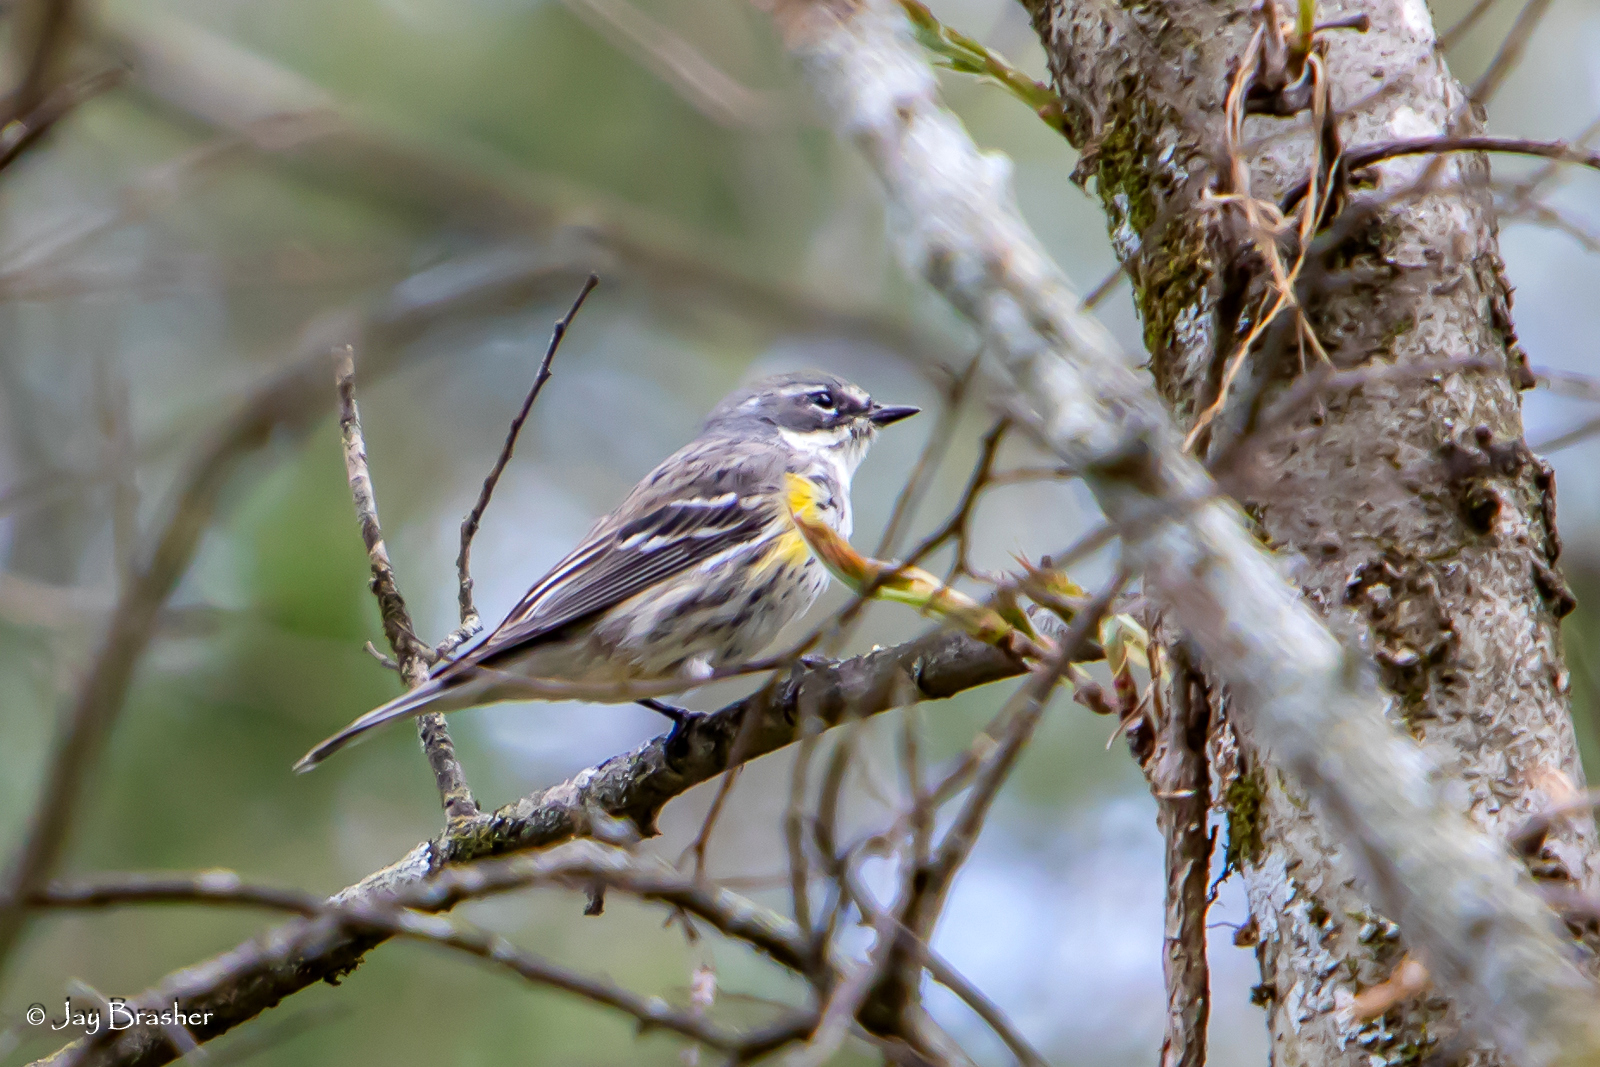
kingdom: Animalia
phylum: Chordata
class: Aves
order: Passeriformes
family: Parulidae
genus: Setophaga
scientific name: Setophaga coronata
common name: Myrtle warbler
